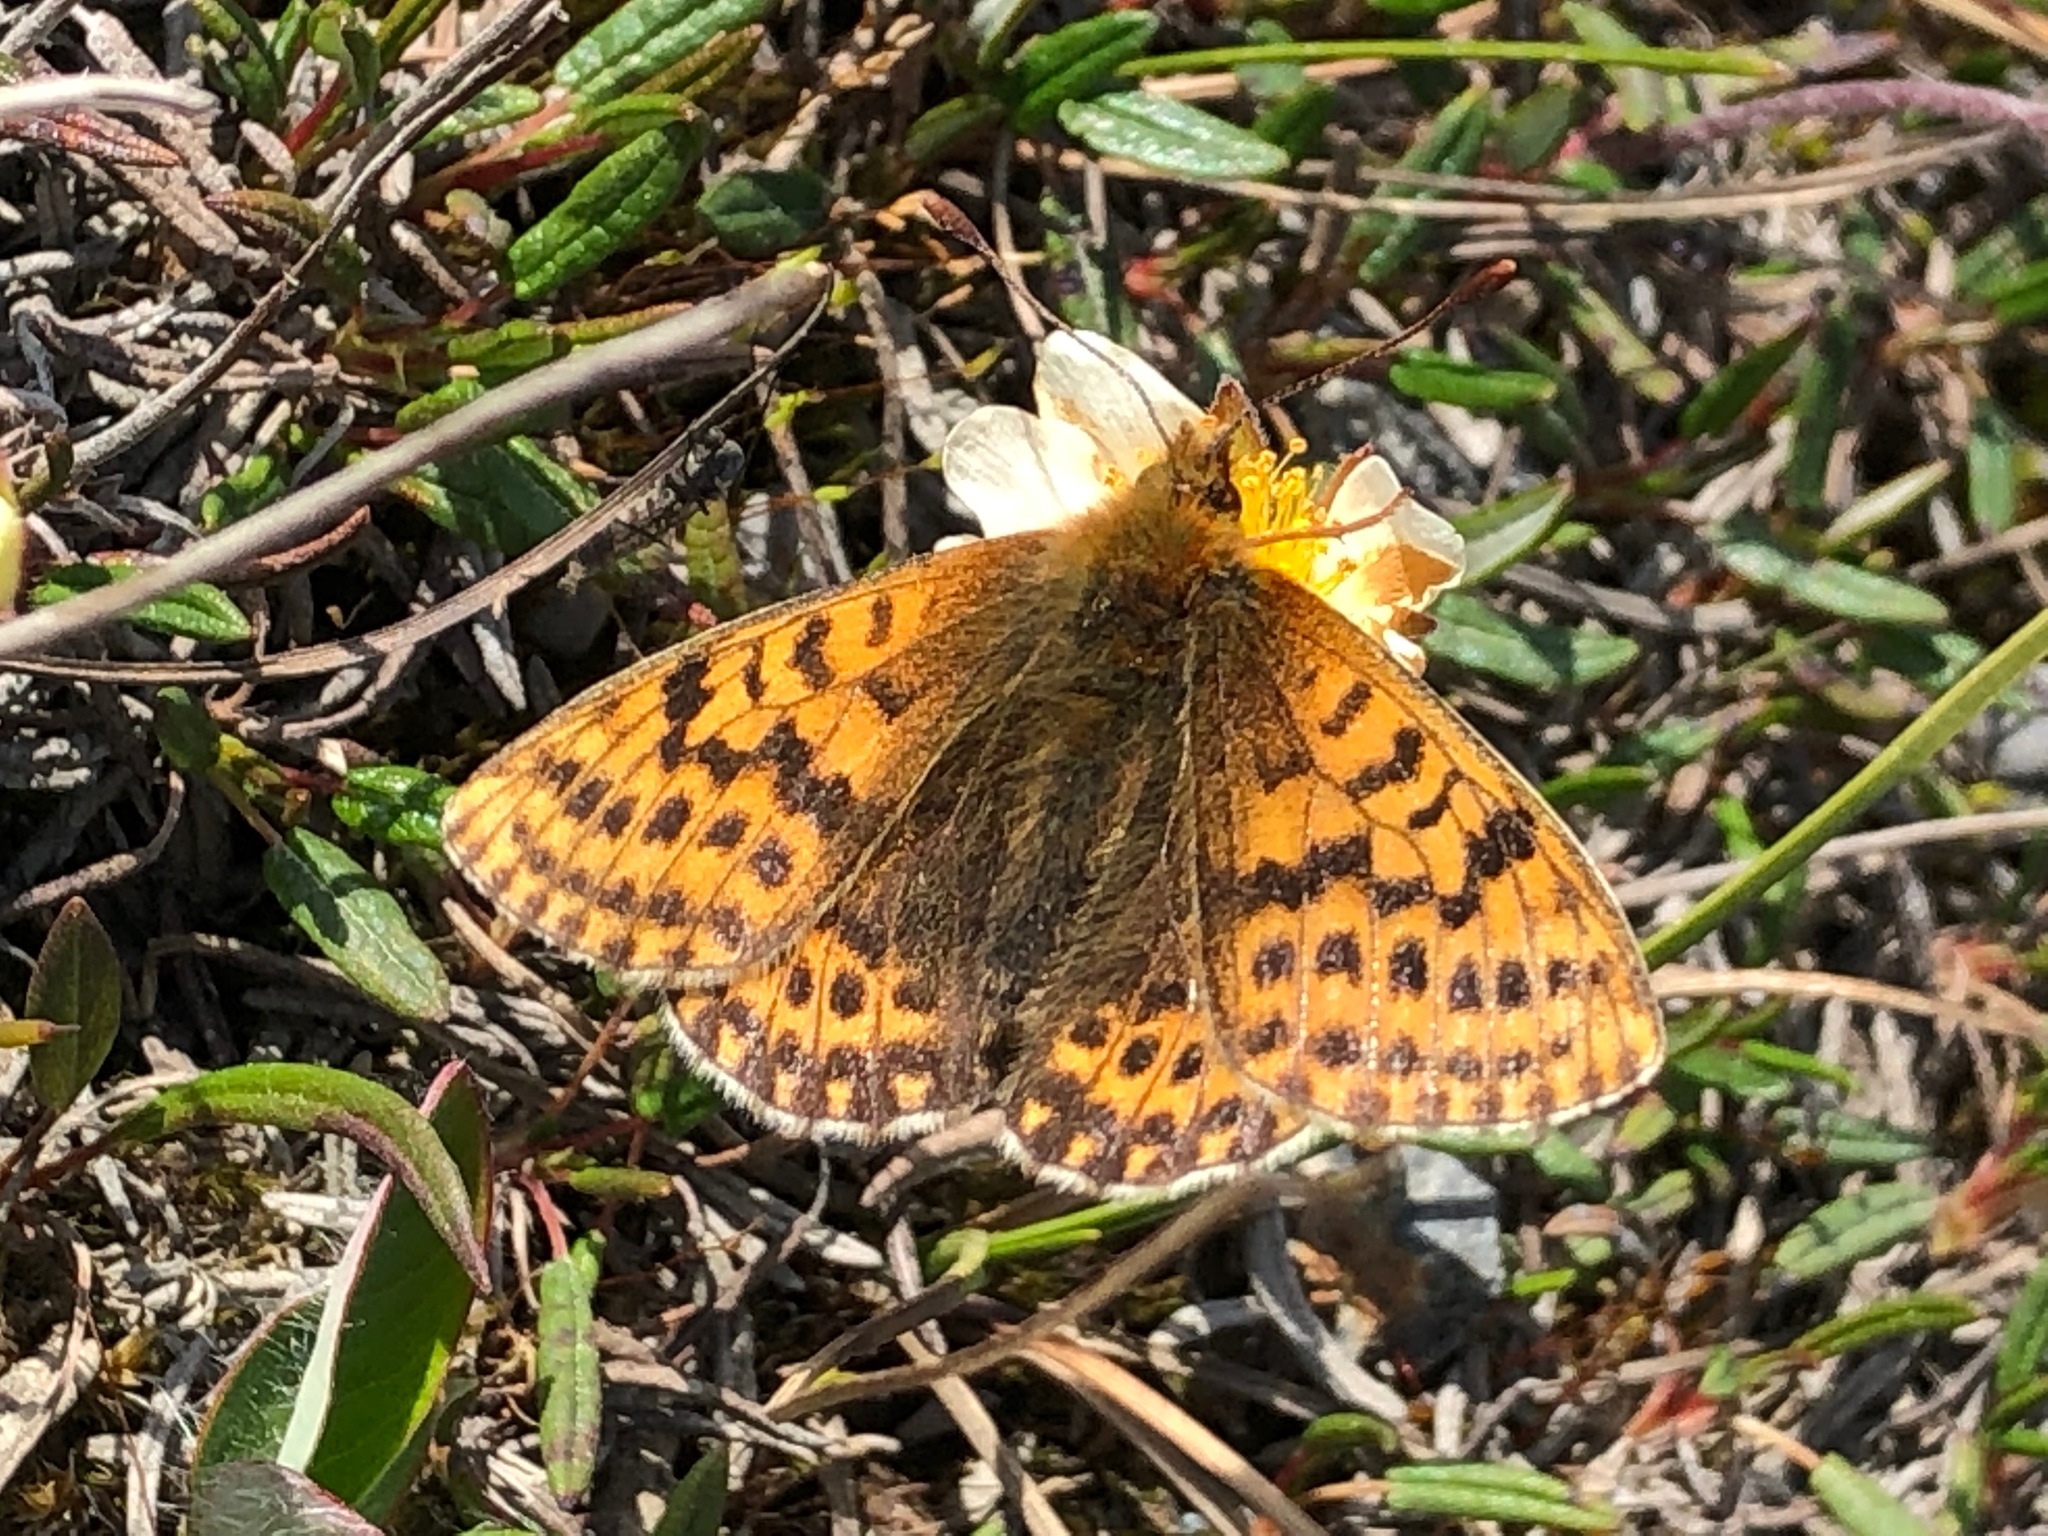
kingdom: Animalia
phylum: Arthropoda
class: Insecta
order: Lepidoptera
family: Nymphalidae
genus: Clossiana
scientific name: Clossiana polaris
